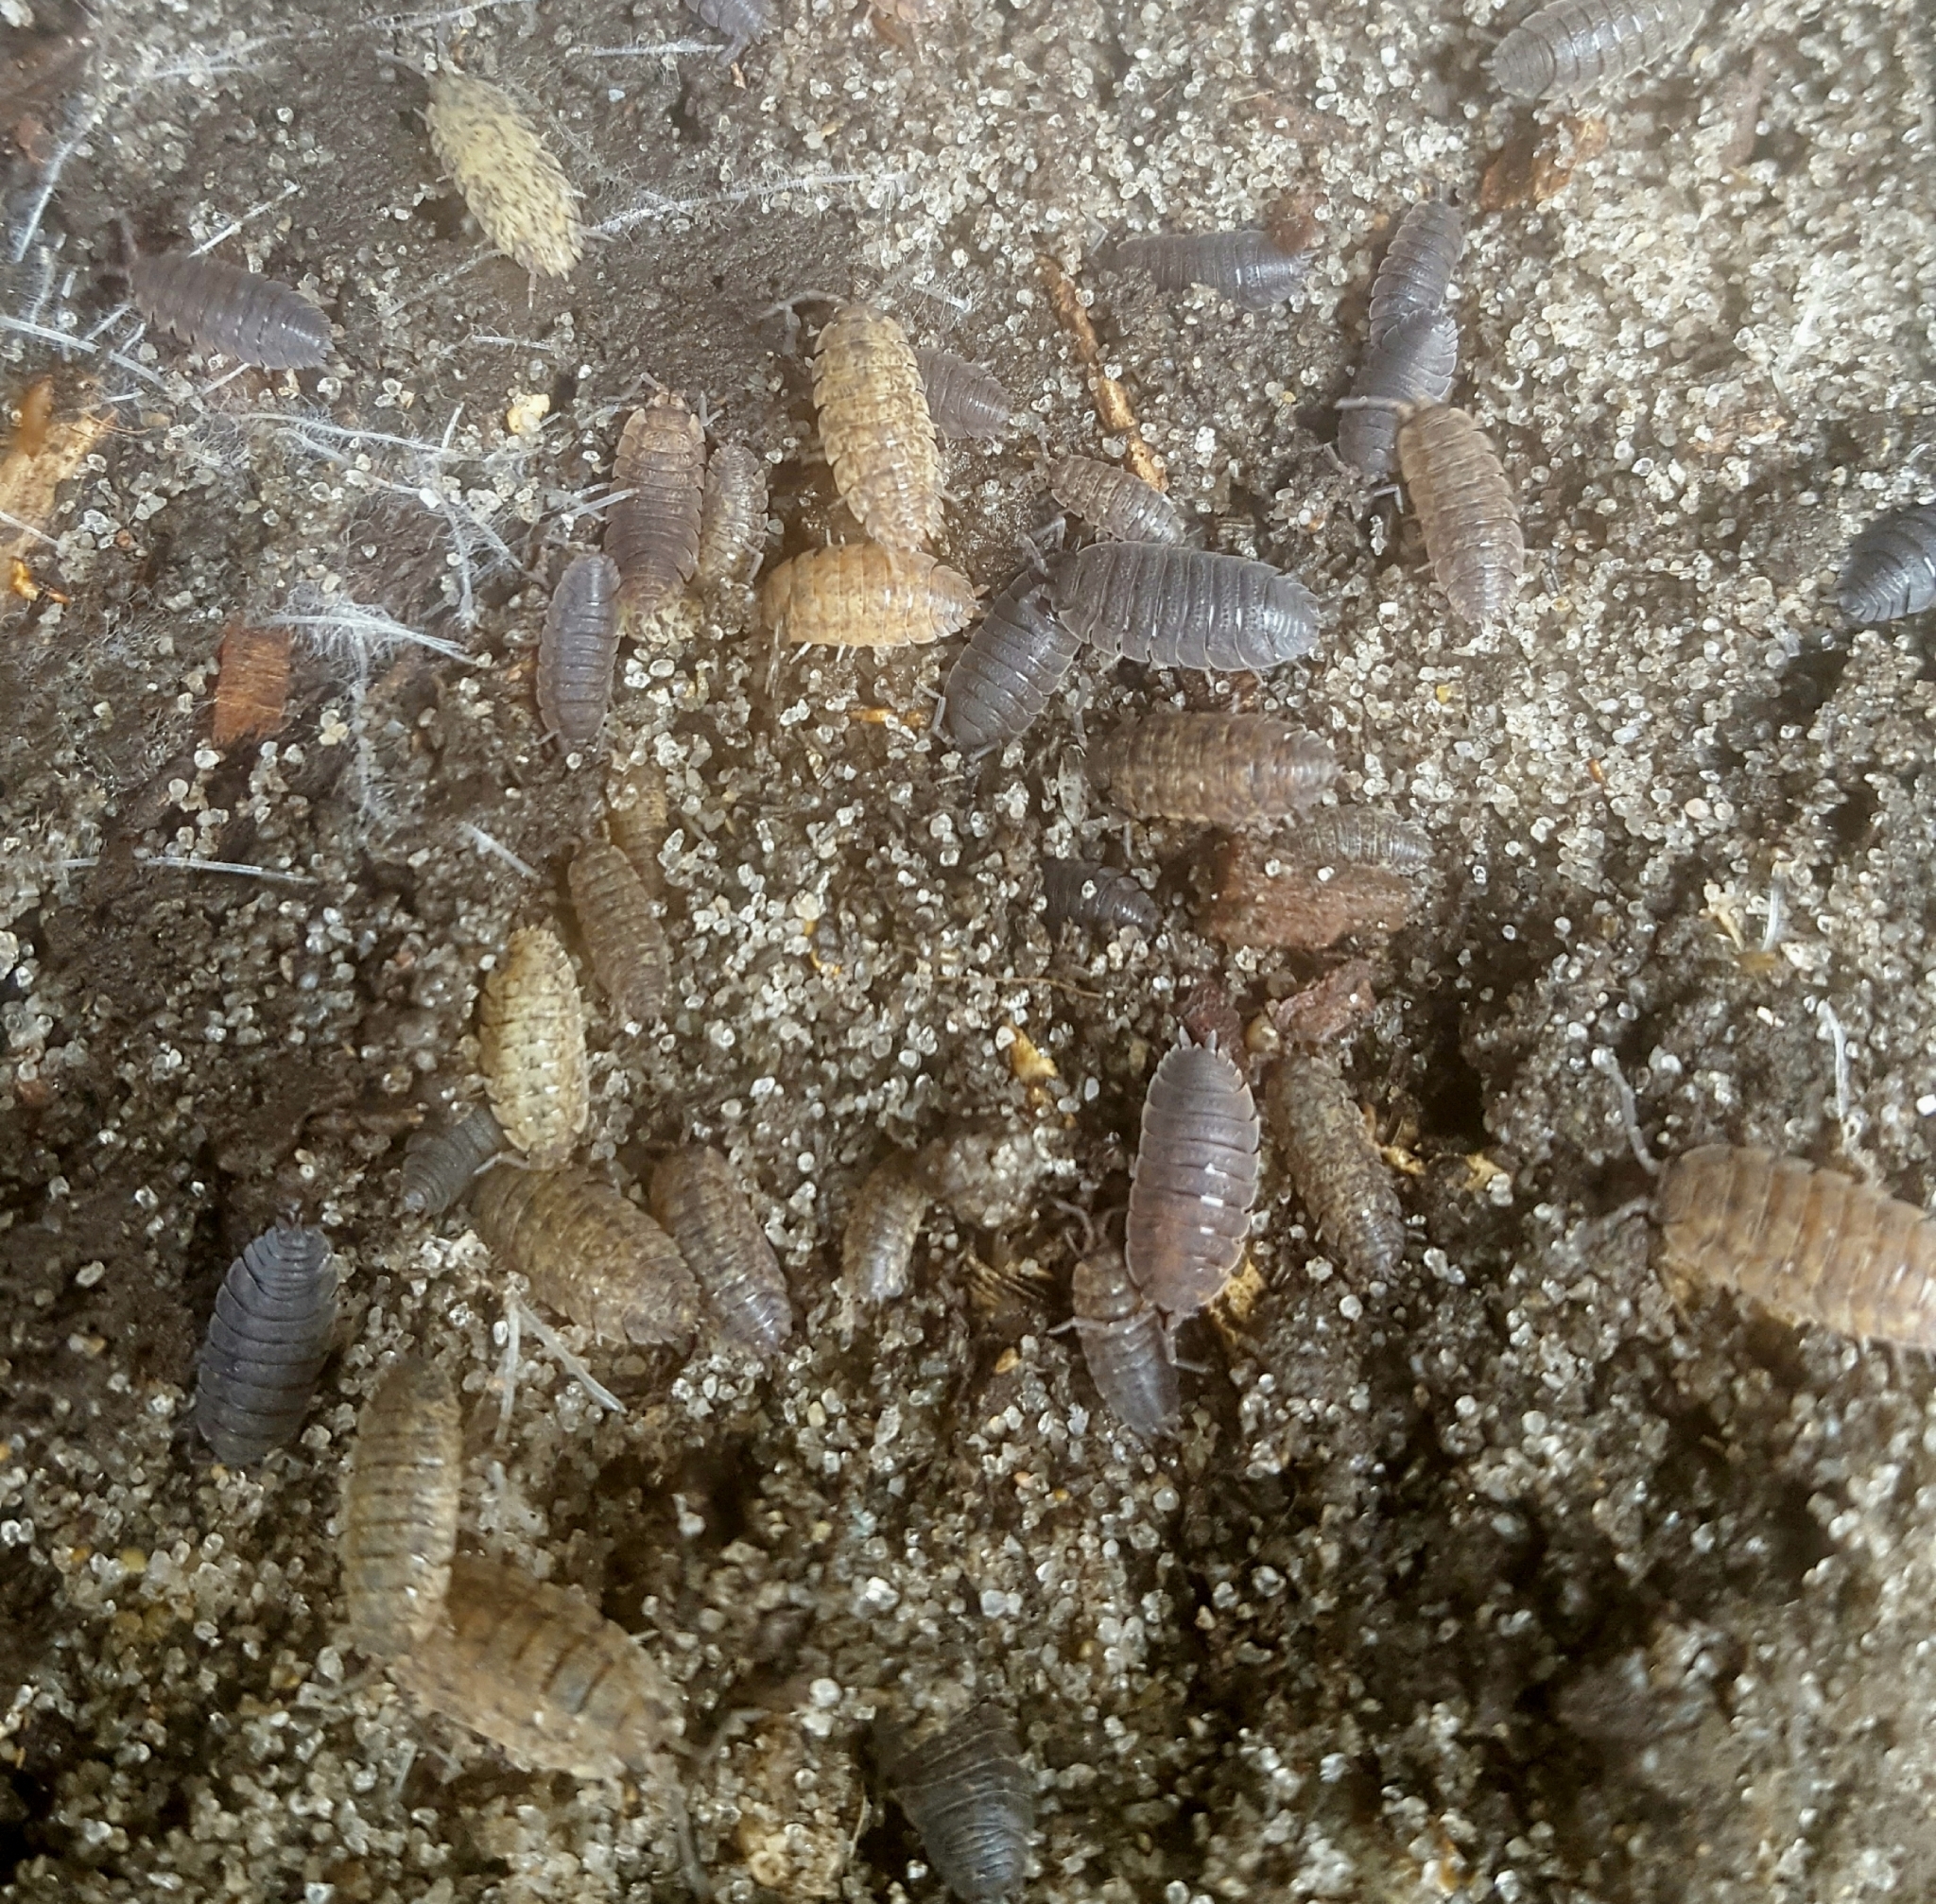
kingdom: Animalia
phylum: Arthropoda
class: Malacostraca
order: Isopoda
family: Porcellionidae
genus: Porcellio
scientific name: Porcellio scaber
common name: Common rough woodlouse
